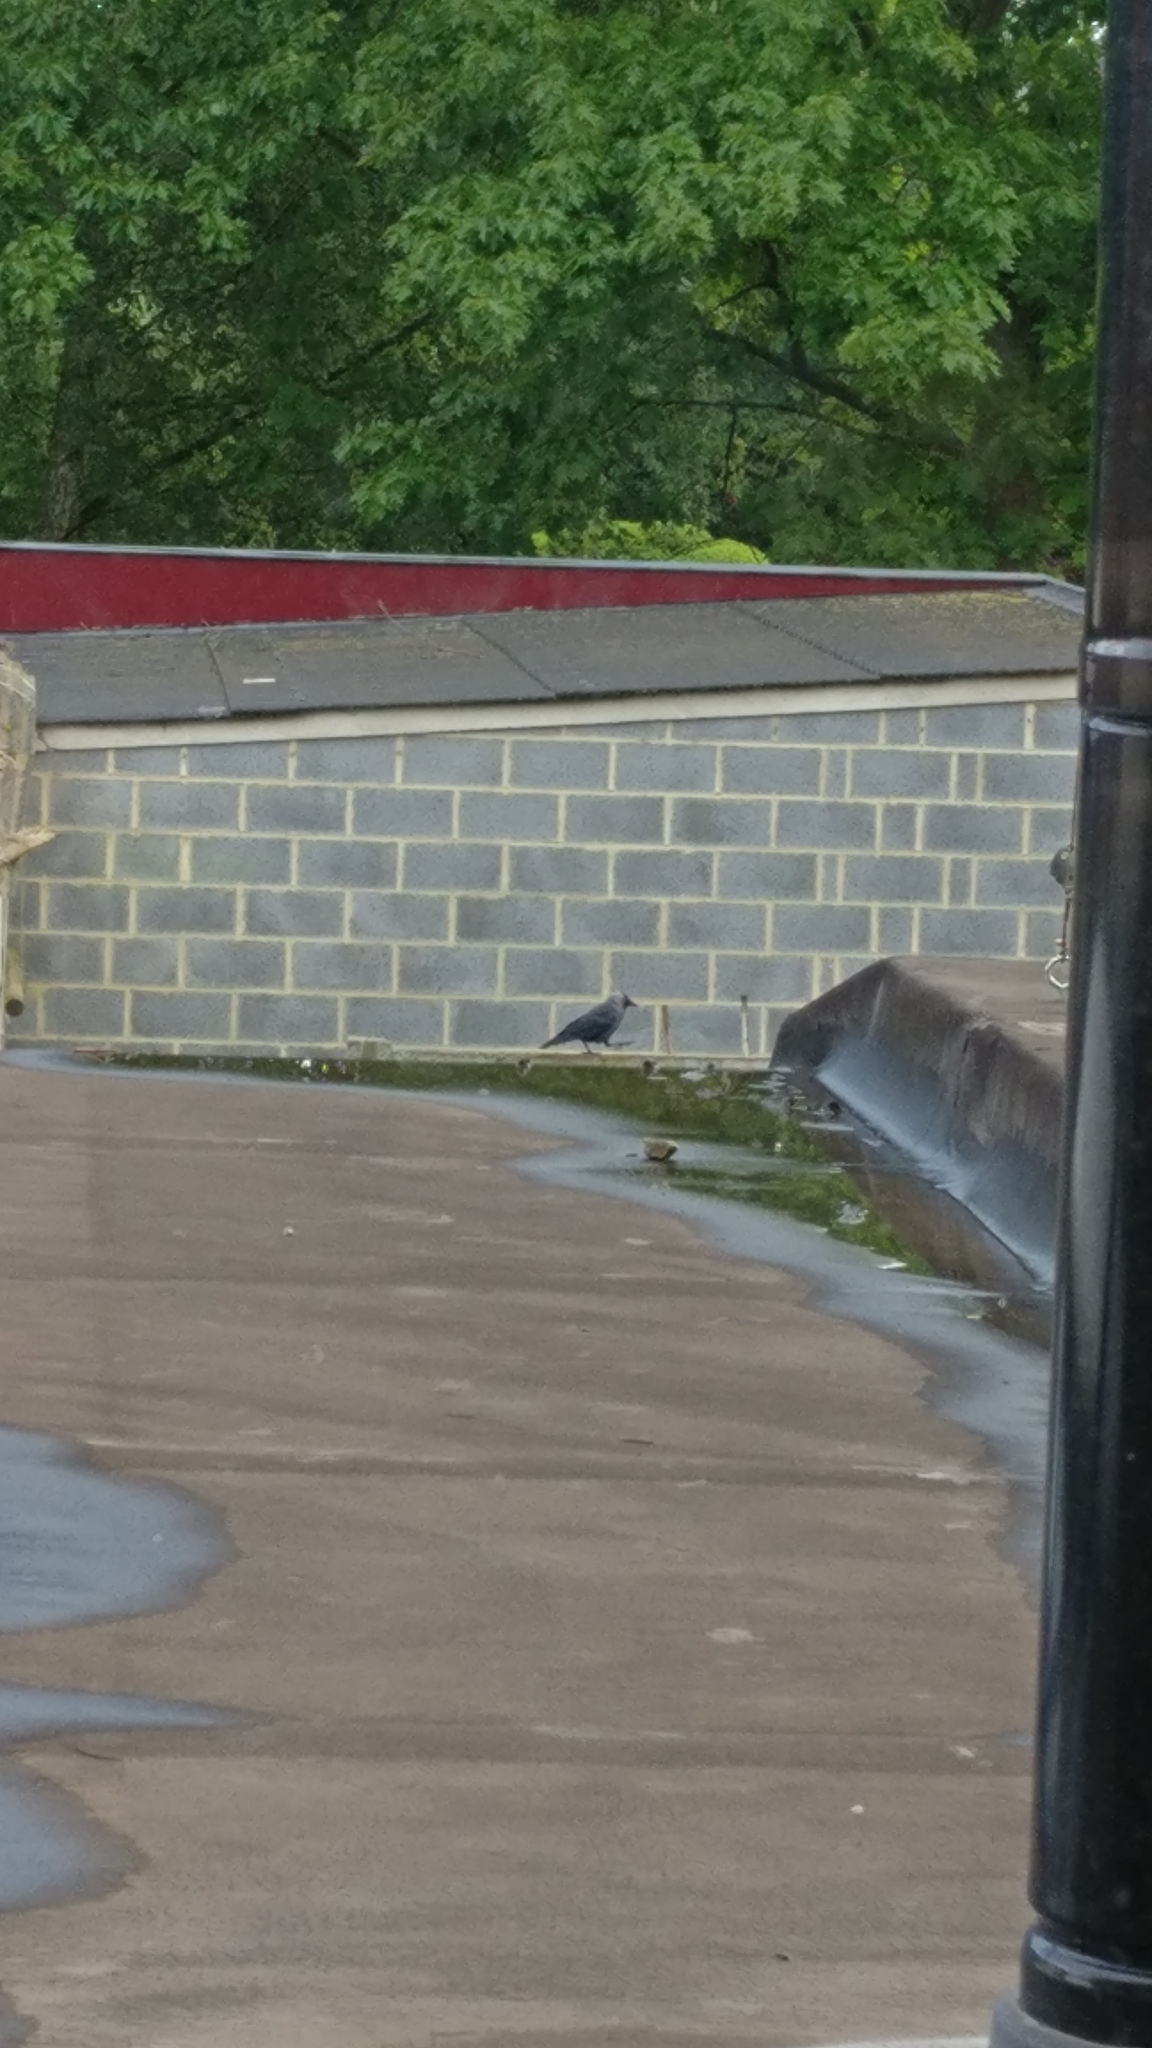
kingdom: Animalia
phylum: Chordata
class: Aves
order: Passeriformes
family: Corvidae
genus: Coloeus
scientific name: Coloeus monedula
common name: Western jackdaw
